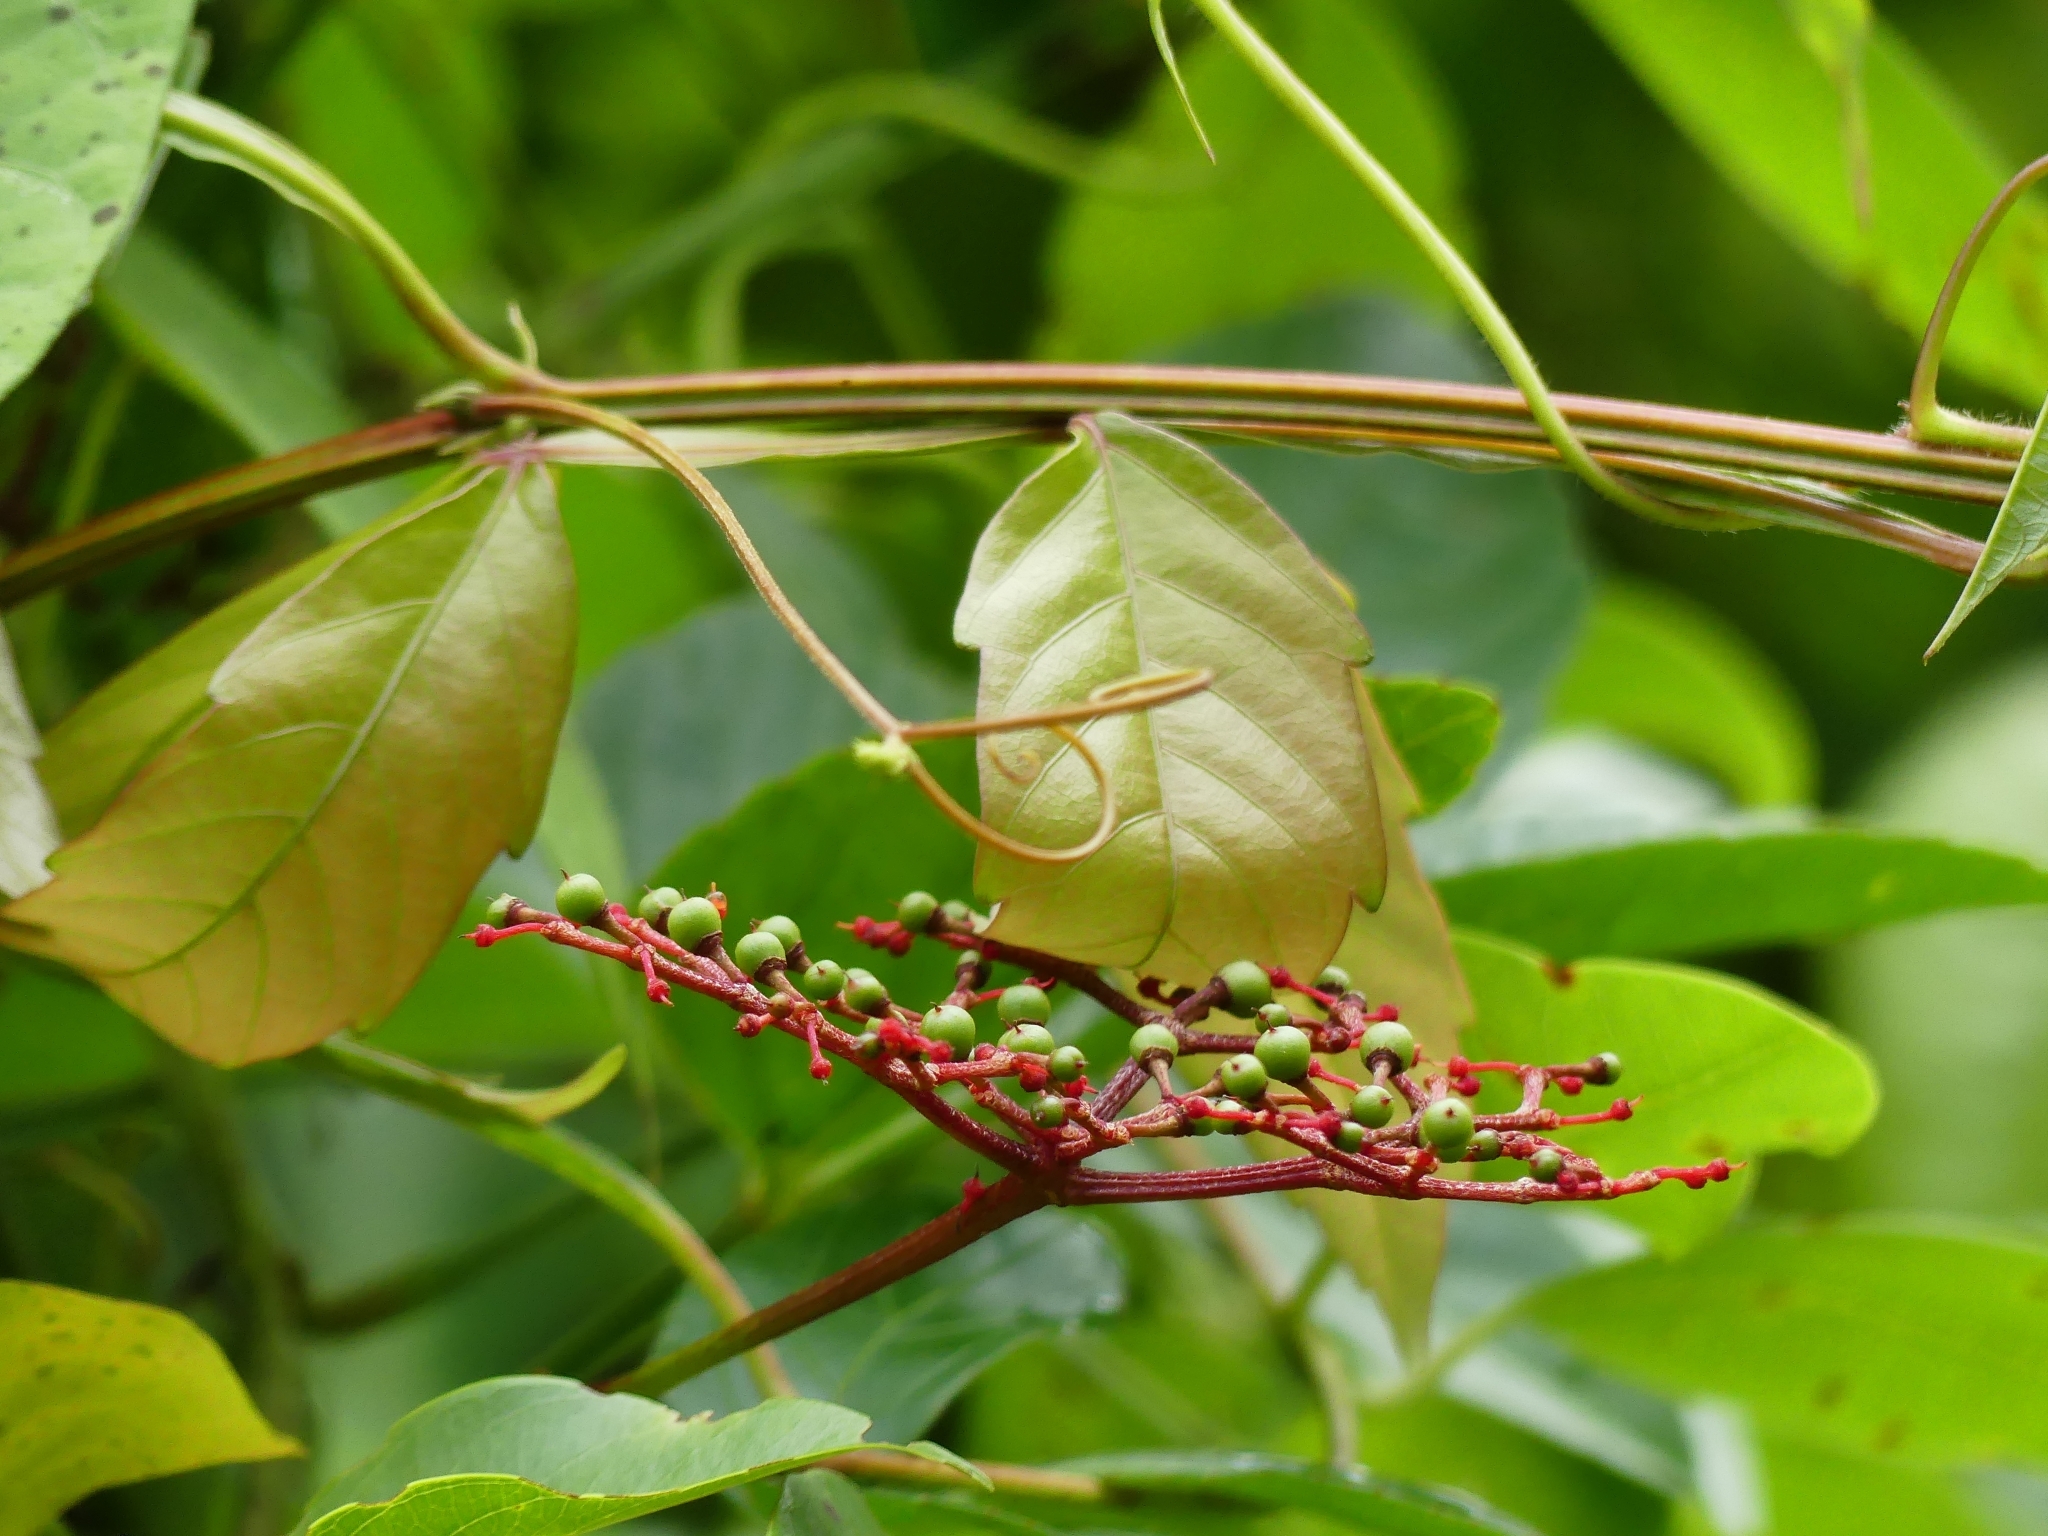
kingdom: Plantae
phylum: Tracheophyta
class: Magnoliopsida
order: Vitales
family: Vitaceae
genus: Cissus
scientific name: Cissus erosa
